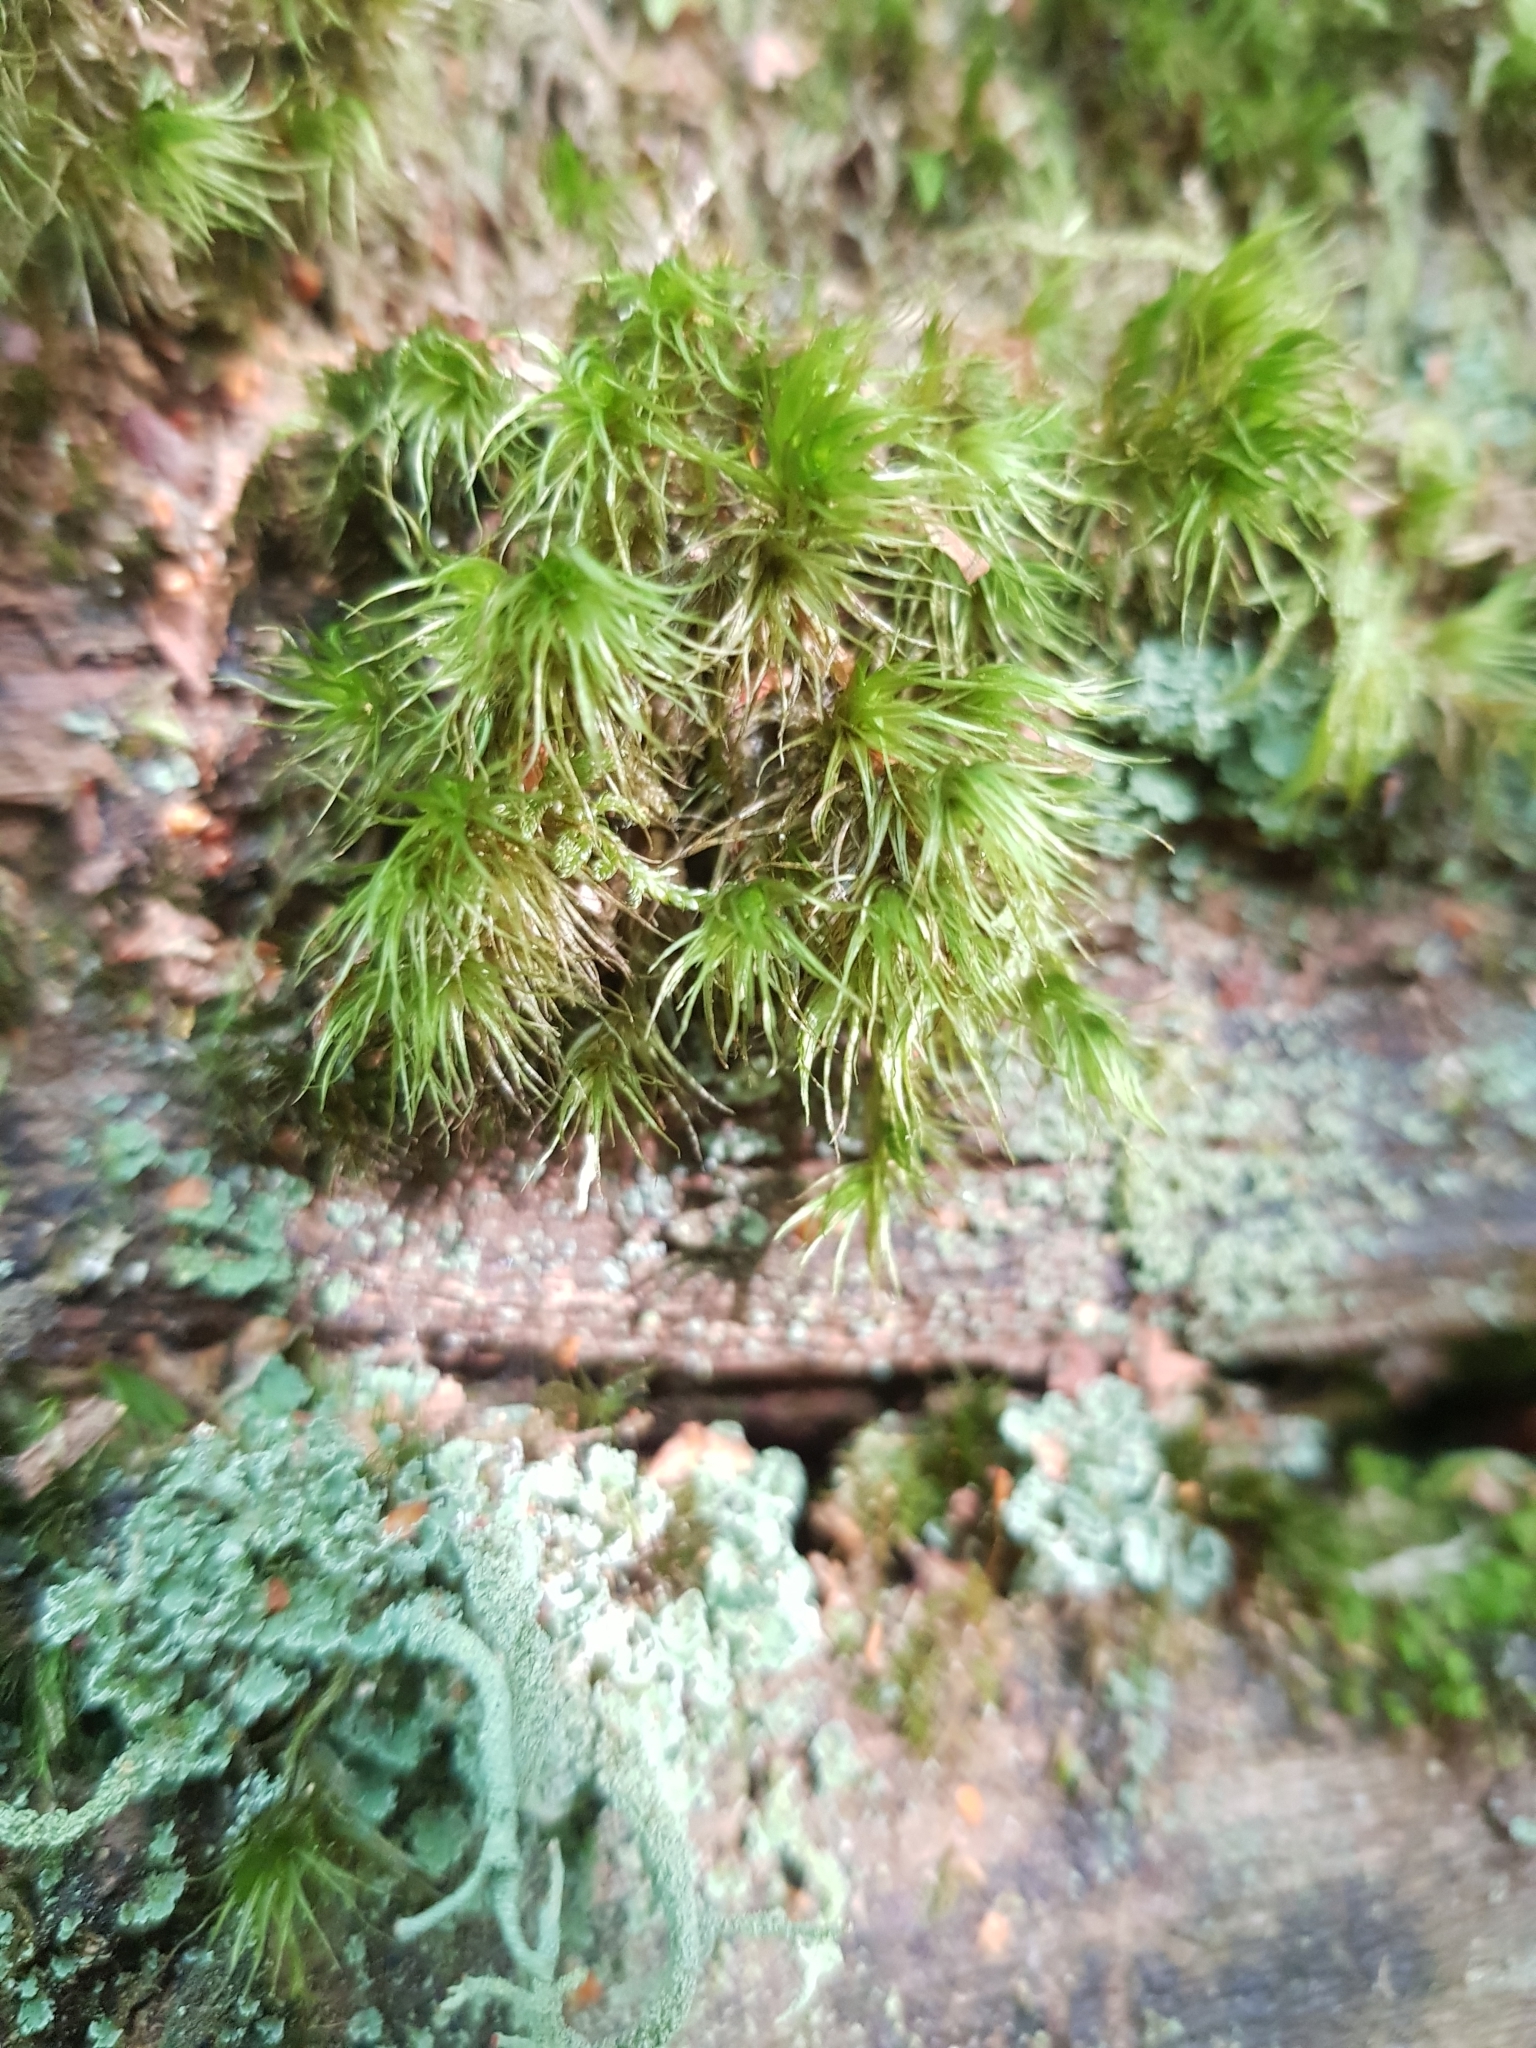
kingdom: Plantae
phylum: Bryophyta
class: Bryopsida
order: Dicranales
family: Dicranaceae
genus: Dicranum
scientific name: Dicranum scoparium
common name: Broom fork-moss
